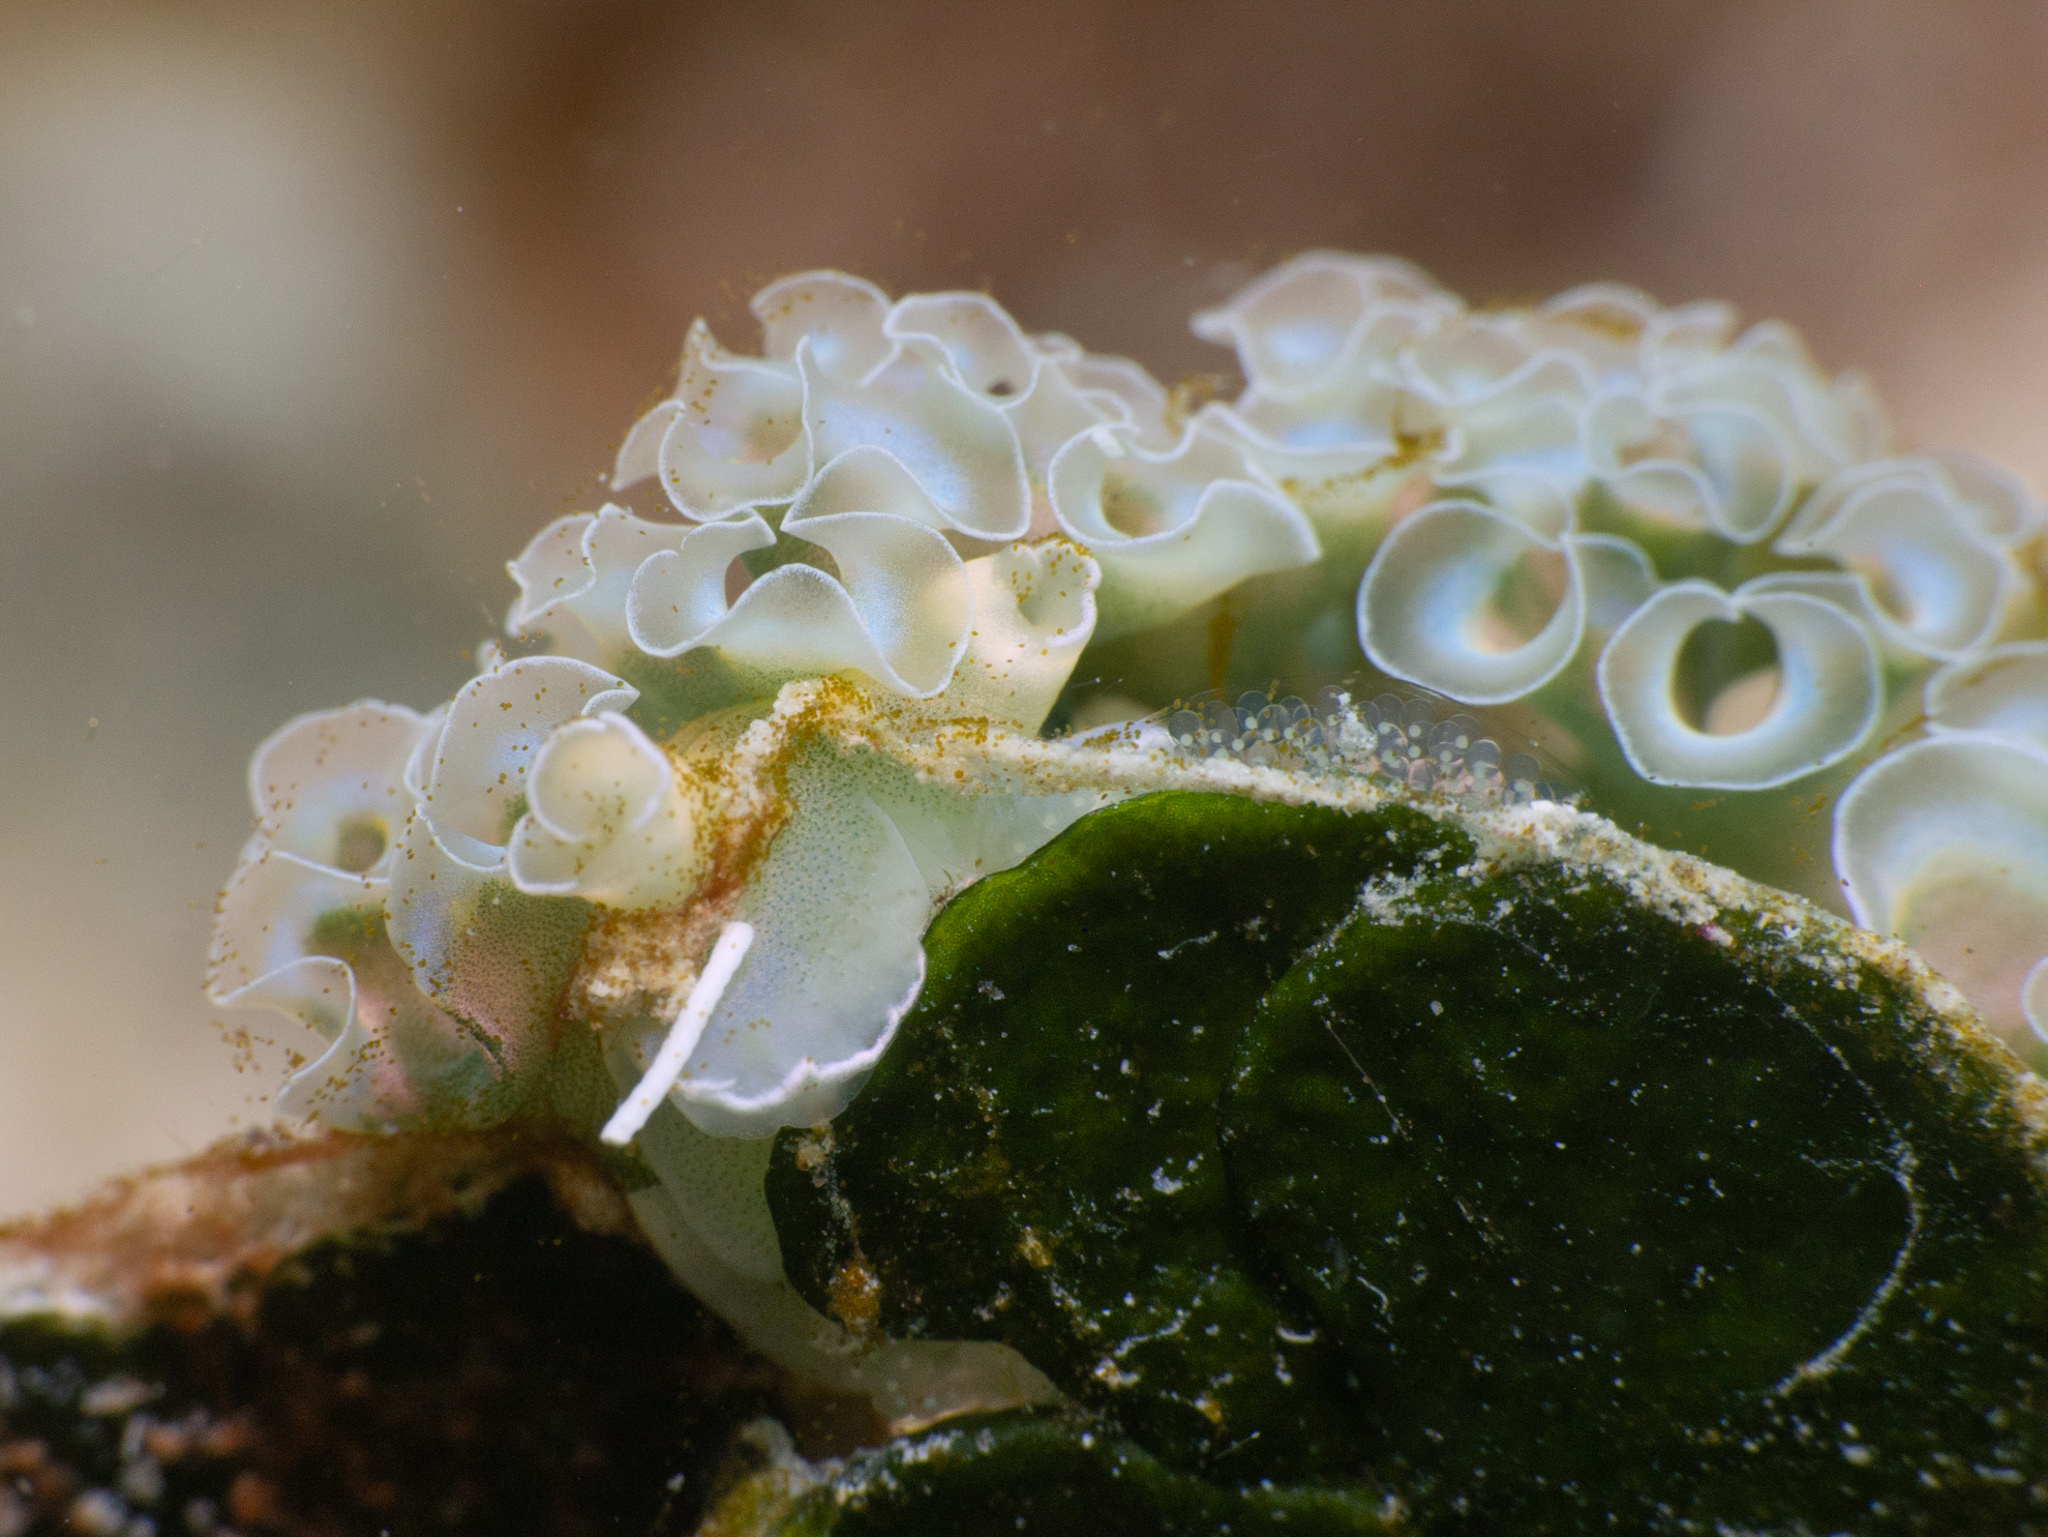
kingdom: Animalia
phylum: Mollusca
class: Gastropoda
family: Plakobranchidae
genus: Elysia
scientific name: Elysia crispata
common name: Lettuce slug
